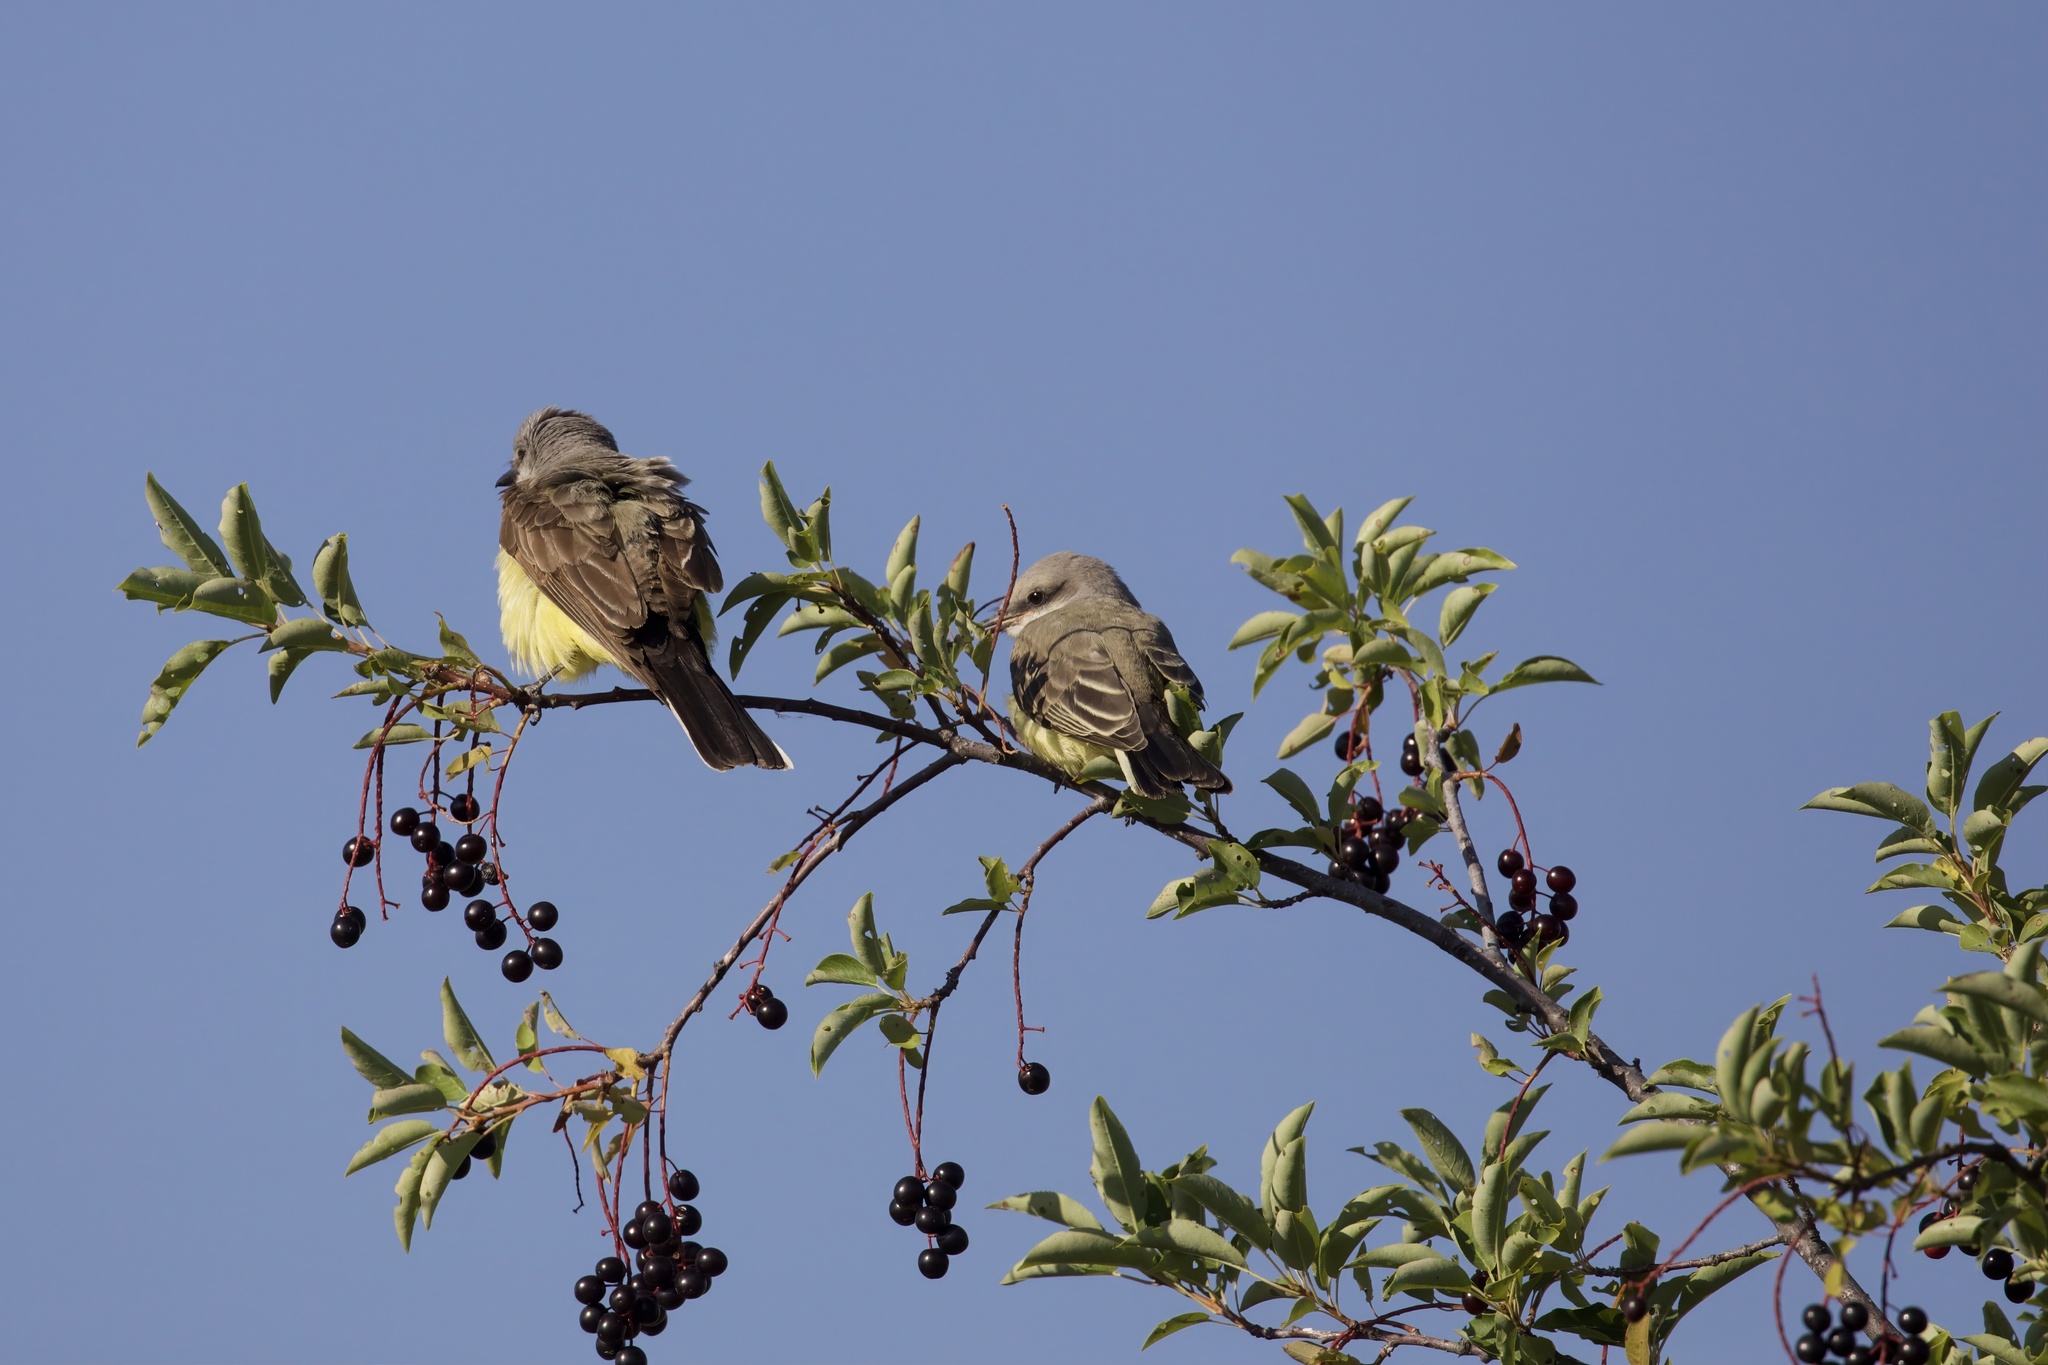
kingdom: Animalia
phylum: Chordata
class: Aves
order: Passeriformes
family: Tyrannidae
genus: Tyrannus
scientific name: Tyrannus verticalis
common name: Western kingbird
